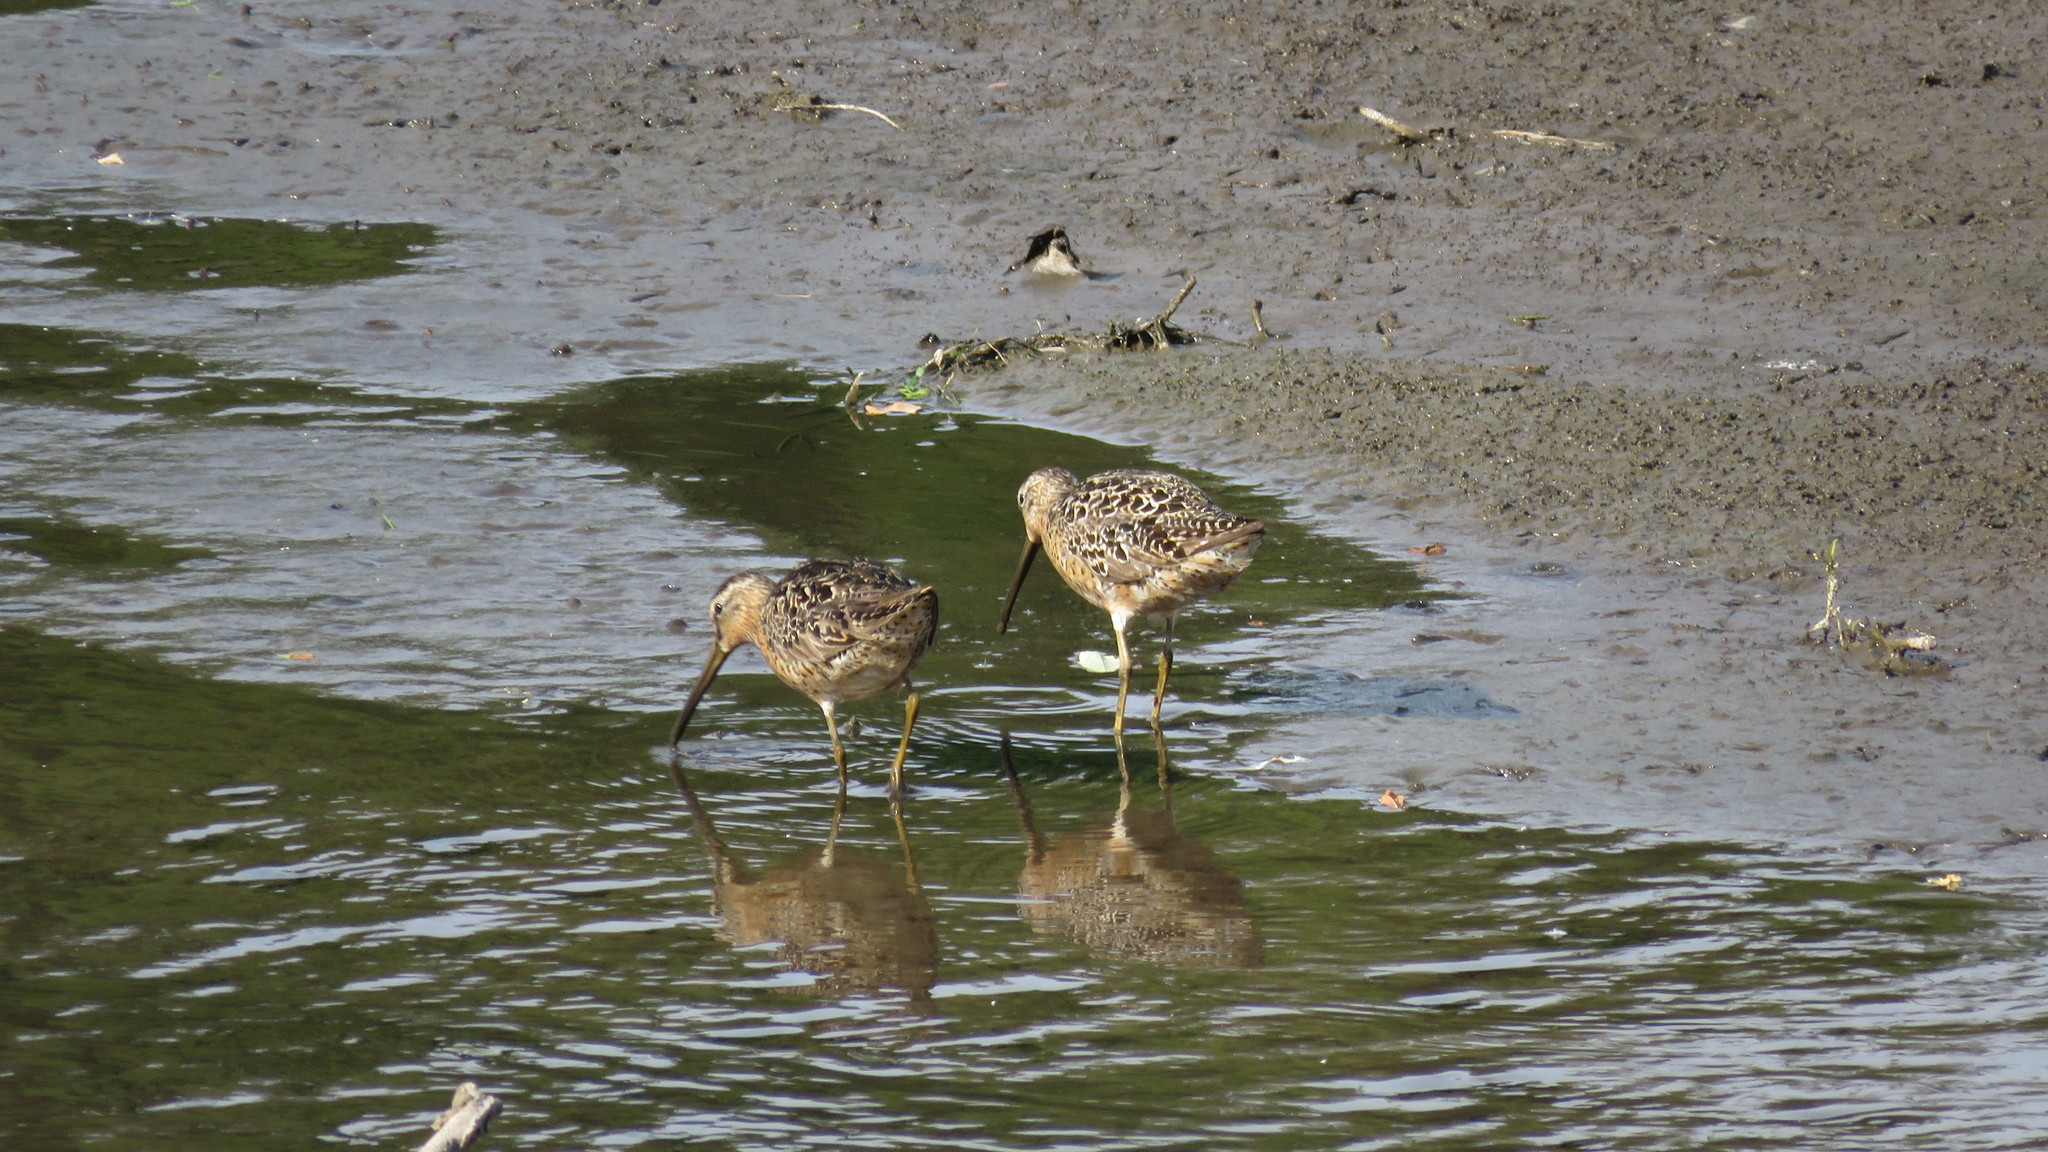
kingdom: Animalia
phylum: Chordata
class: Aves
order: Charadriiformes
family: Scolopacidae
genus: Limnodromus
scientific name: Limnodromus griseus
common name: Short-billed dowitcher
